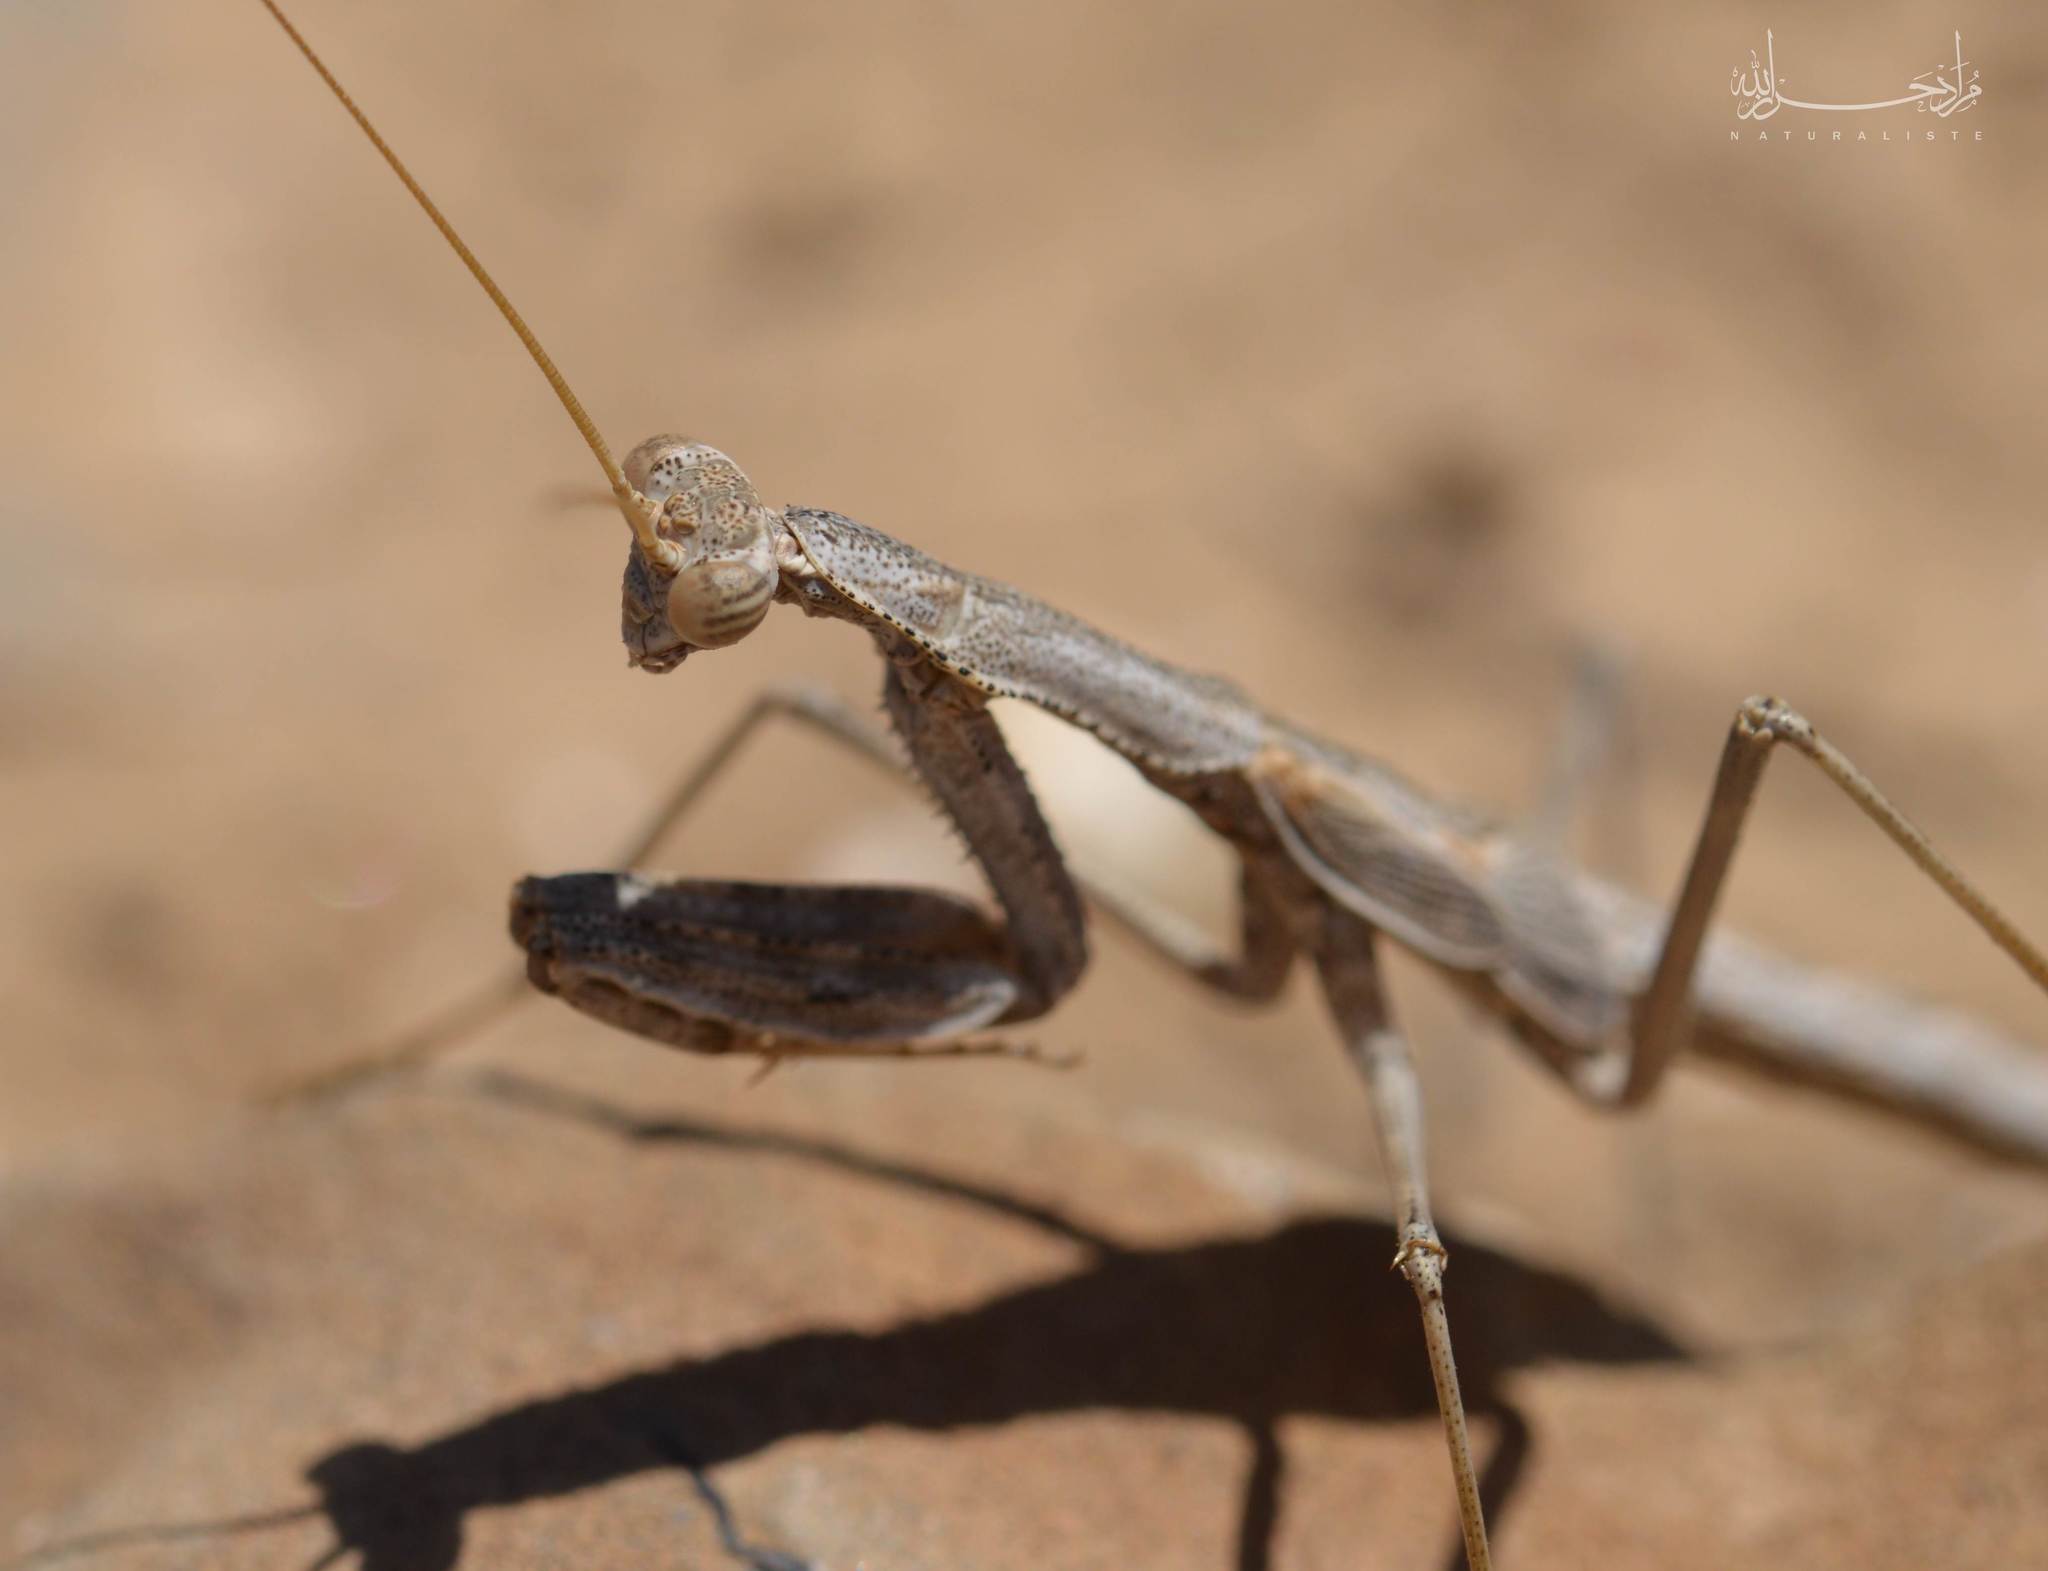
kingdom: Animalia
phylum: Arthropoda
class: Insecta
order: Mantodea
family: Rivetinidae
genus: Rivetina
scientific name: Rivetina baetica
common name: Baetic ground mantis
